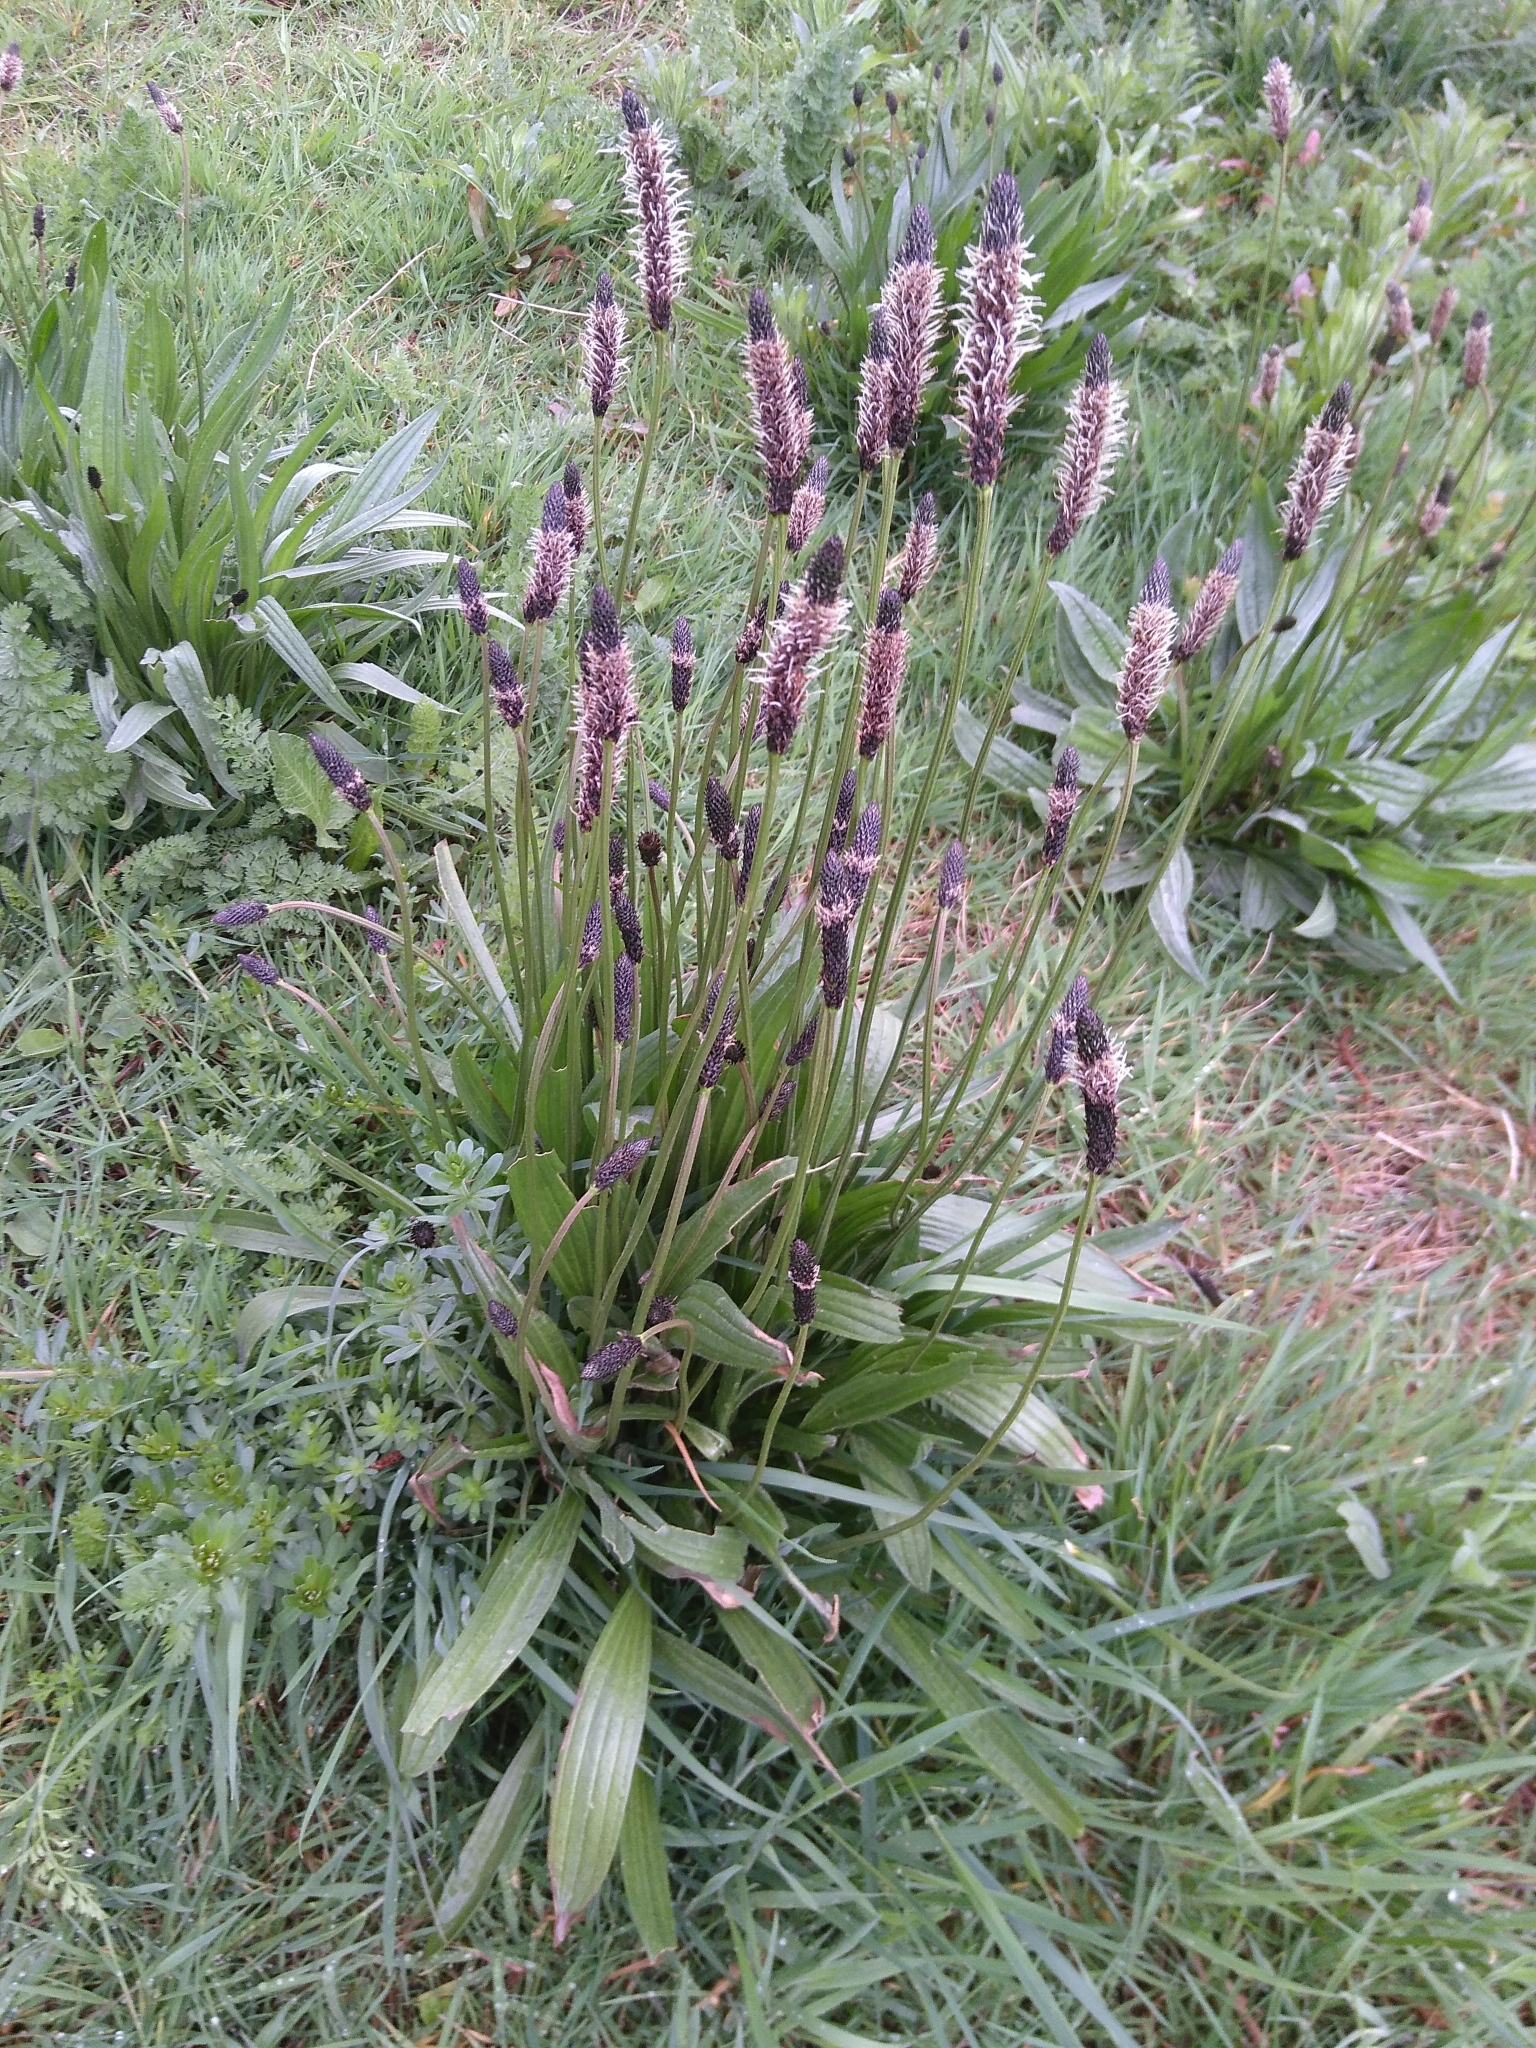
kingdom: Plantae
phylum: Tracheophyta
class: Magnoliopsida
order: Lamiales
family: Plantaginaceae
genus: Plantago
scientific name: Plantago lanceolata
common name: Ribwort plantain
